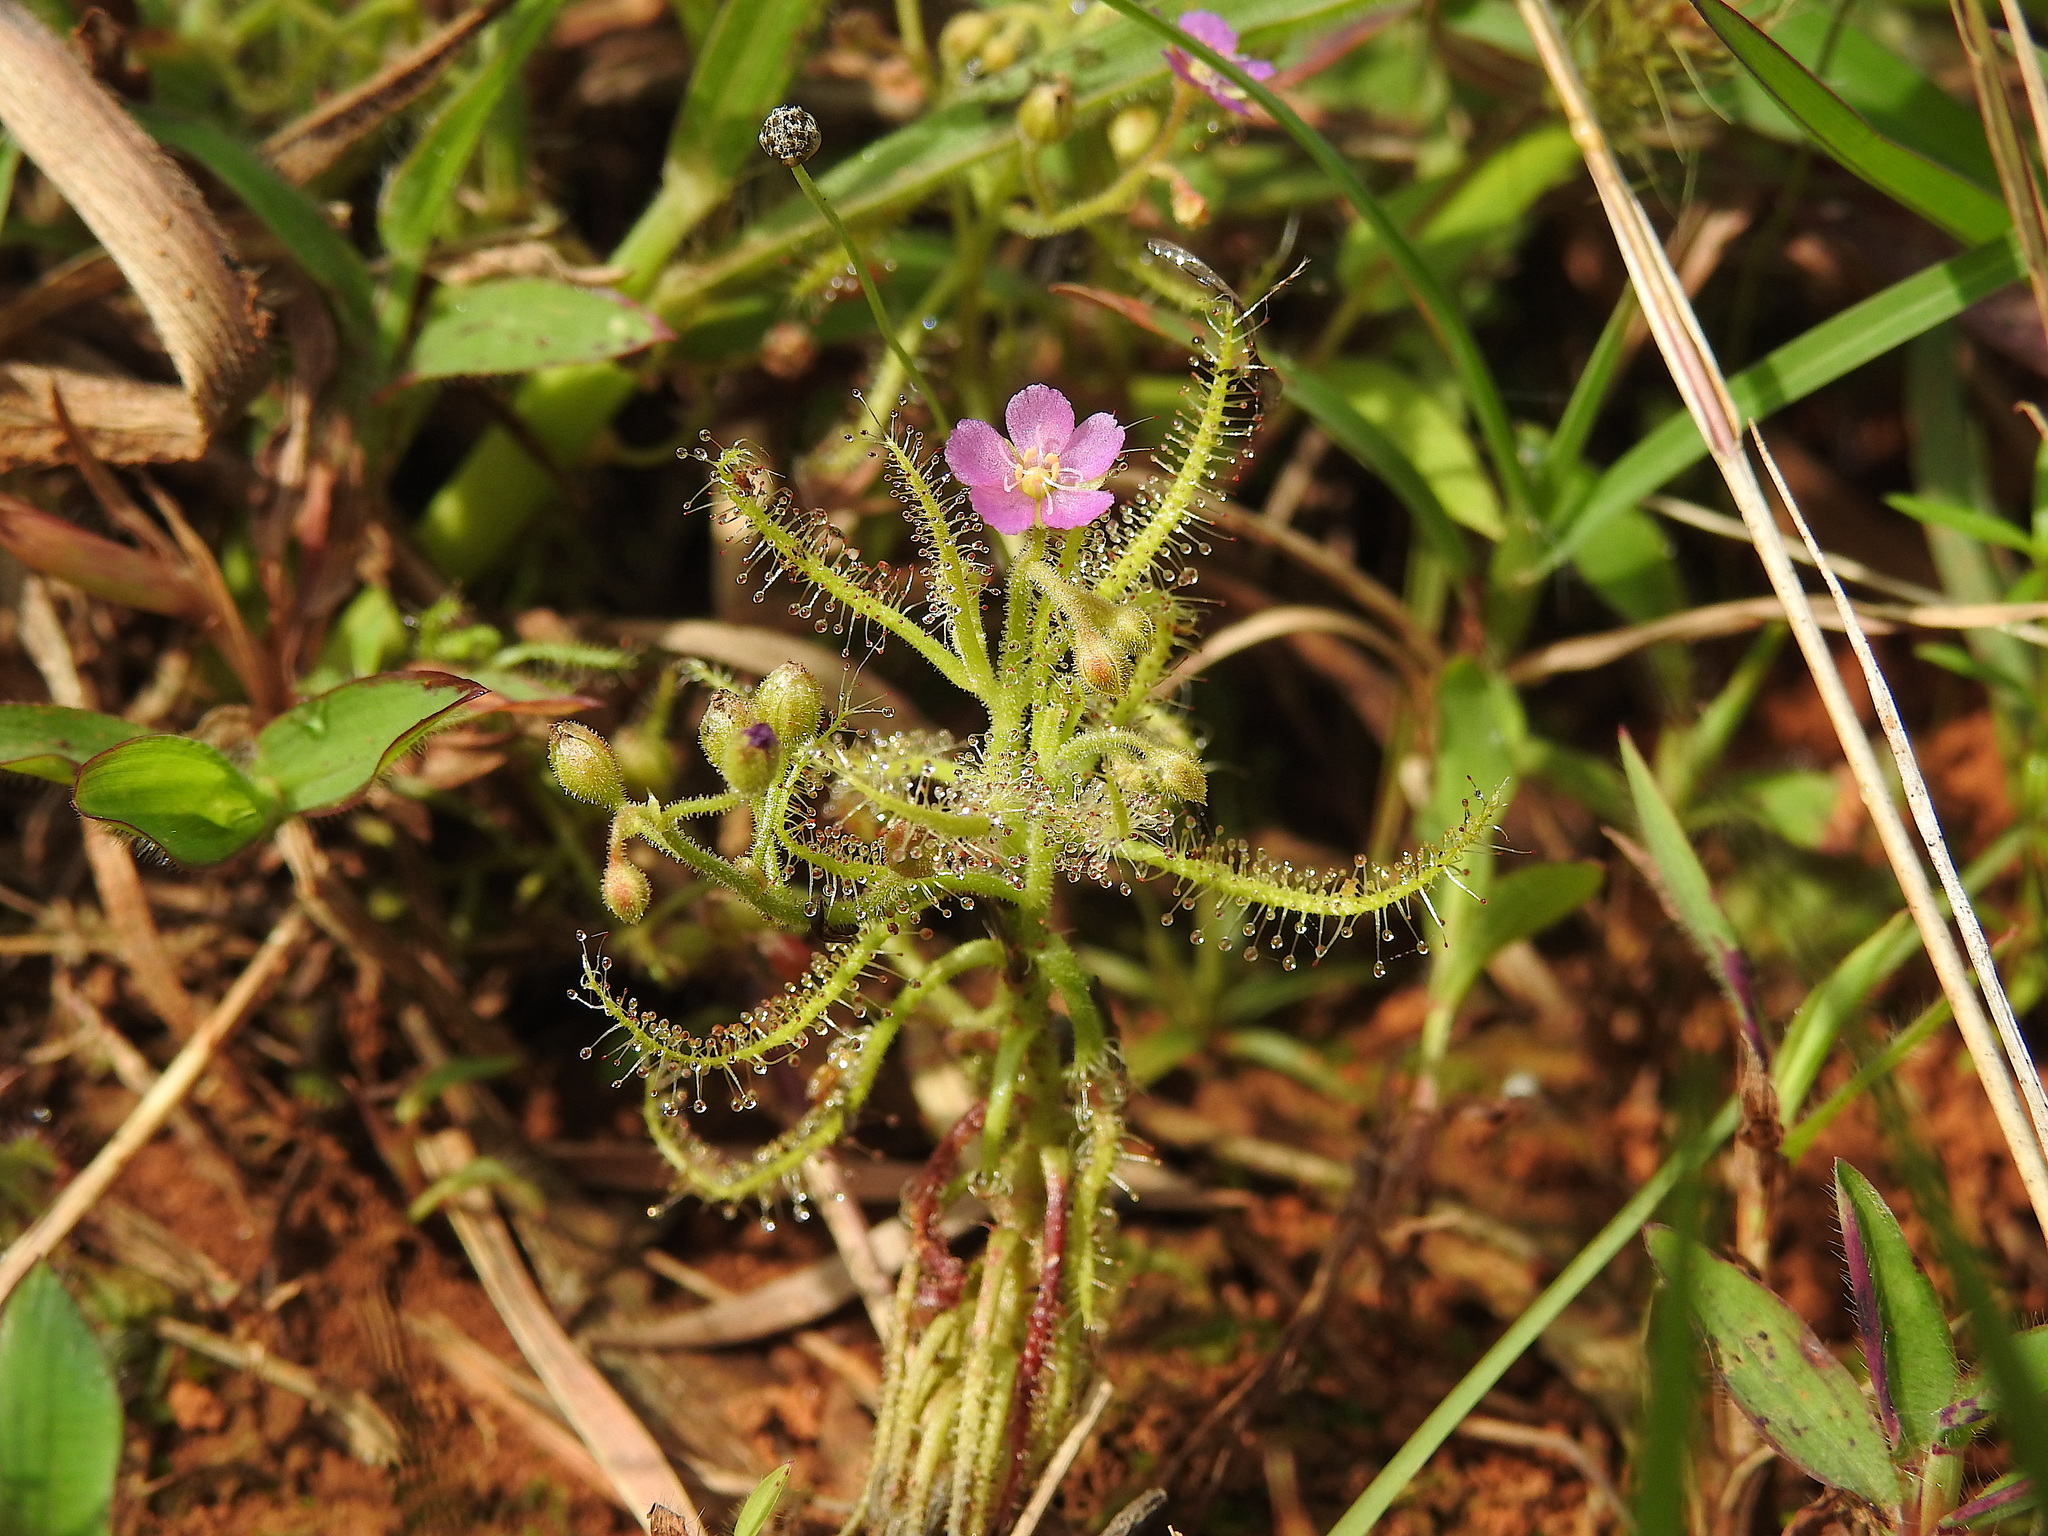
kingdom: Plantae
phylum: Tracheophyta
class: Magnoliopsida
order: Caryophyllales
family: Droseraceae
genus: Drosera
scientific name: Drosera indica
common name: Indian sundew
